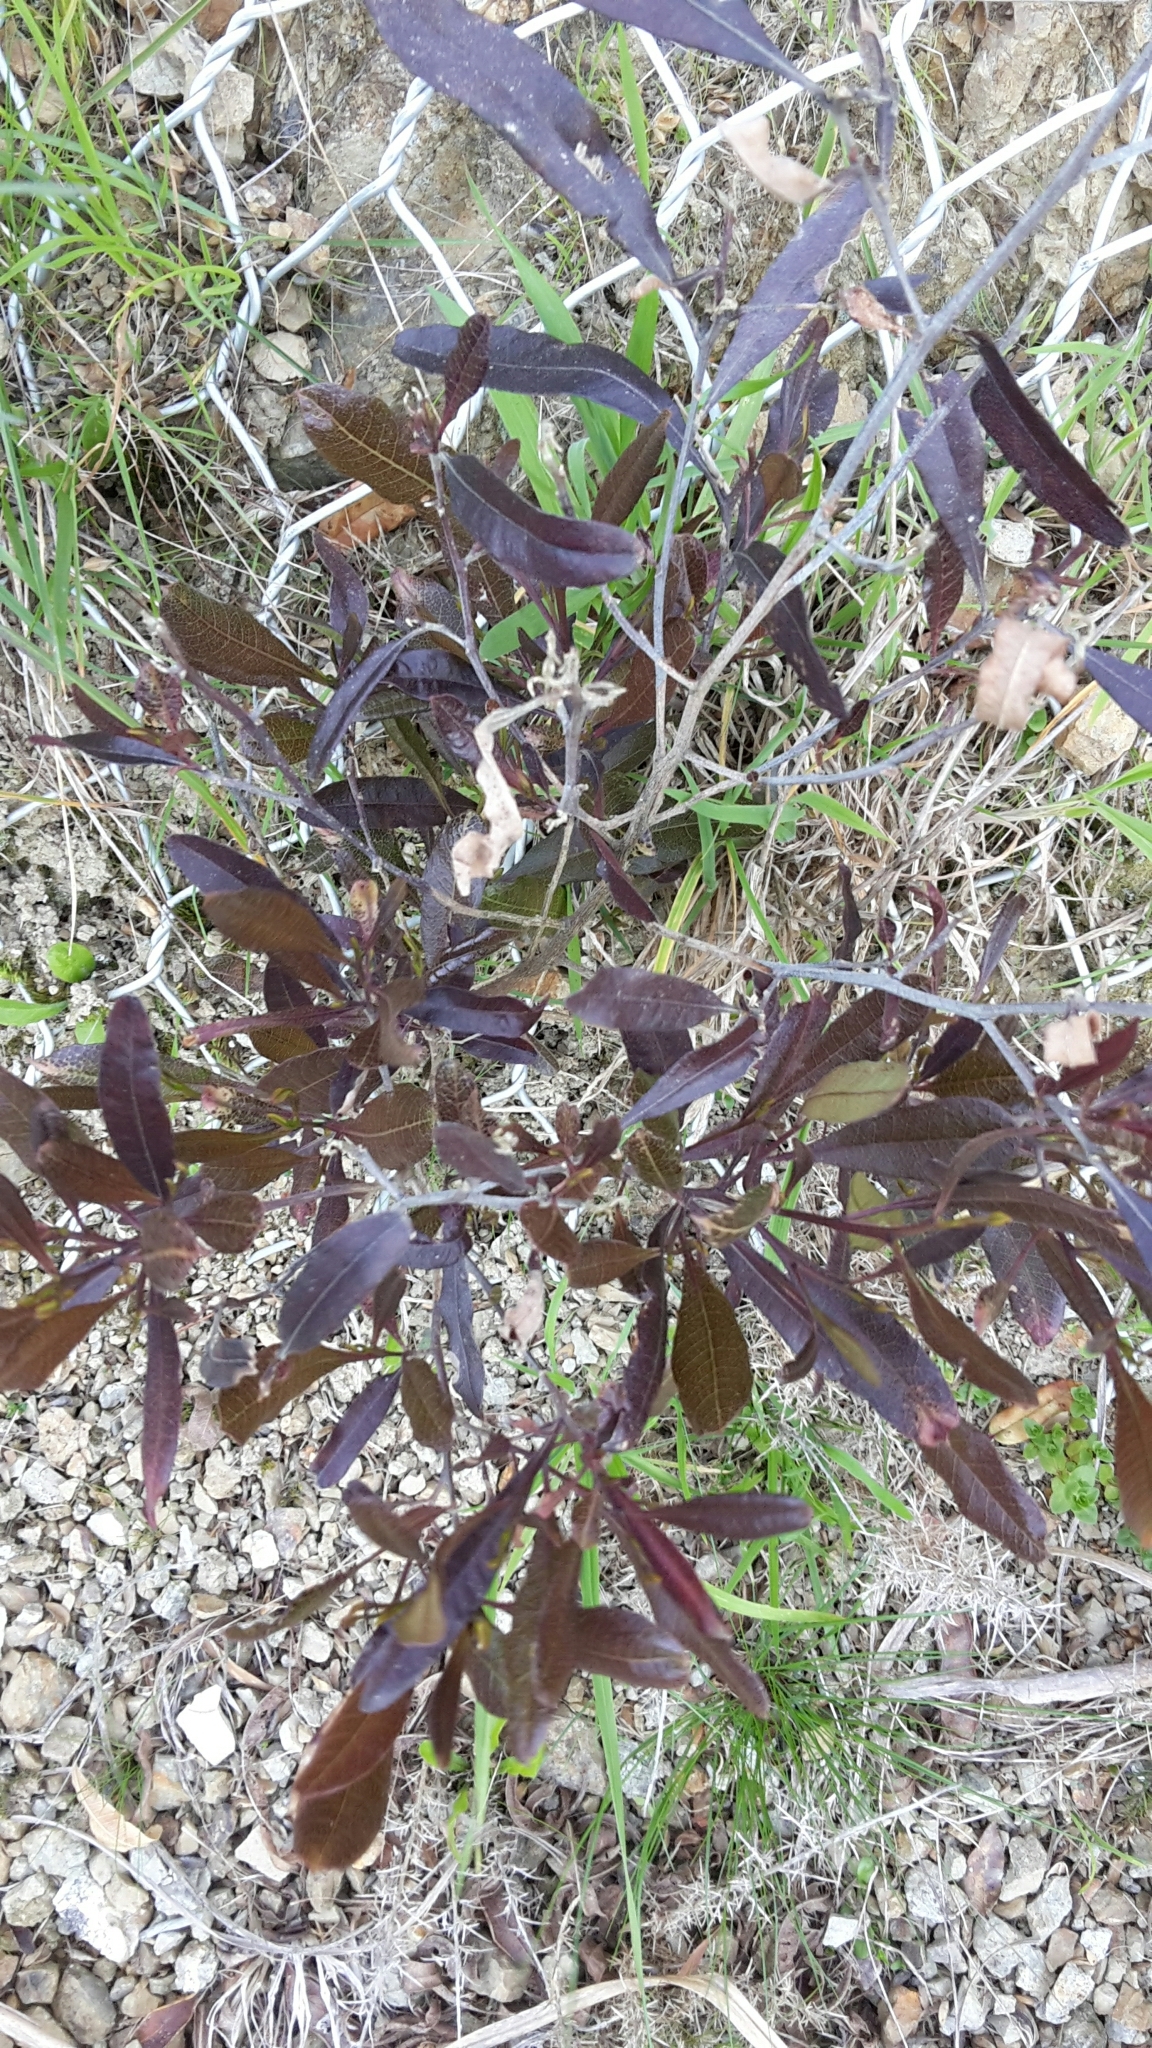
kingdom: Plantae
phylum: Tracheophyta
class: Magnoliopsida
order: Sapindales
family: Sapindaceae
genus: Dodonaea
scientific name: Dodonaea viscosa
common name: Hopbush
